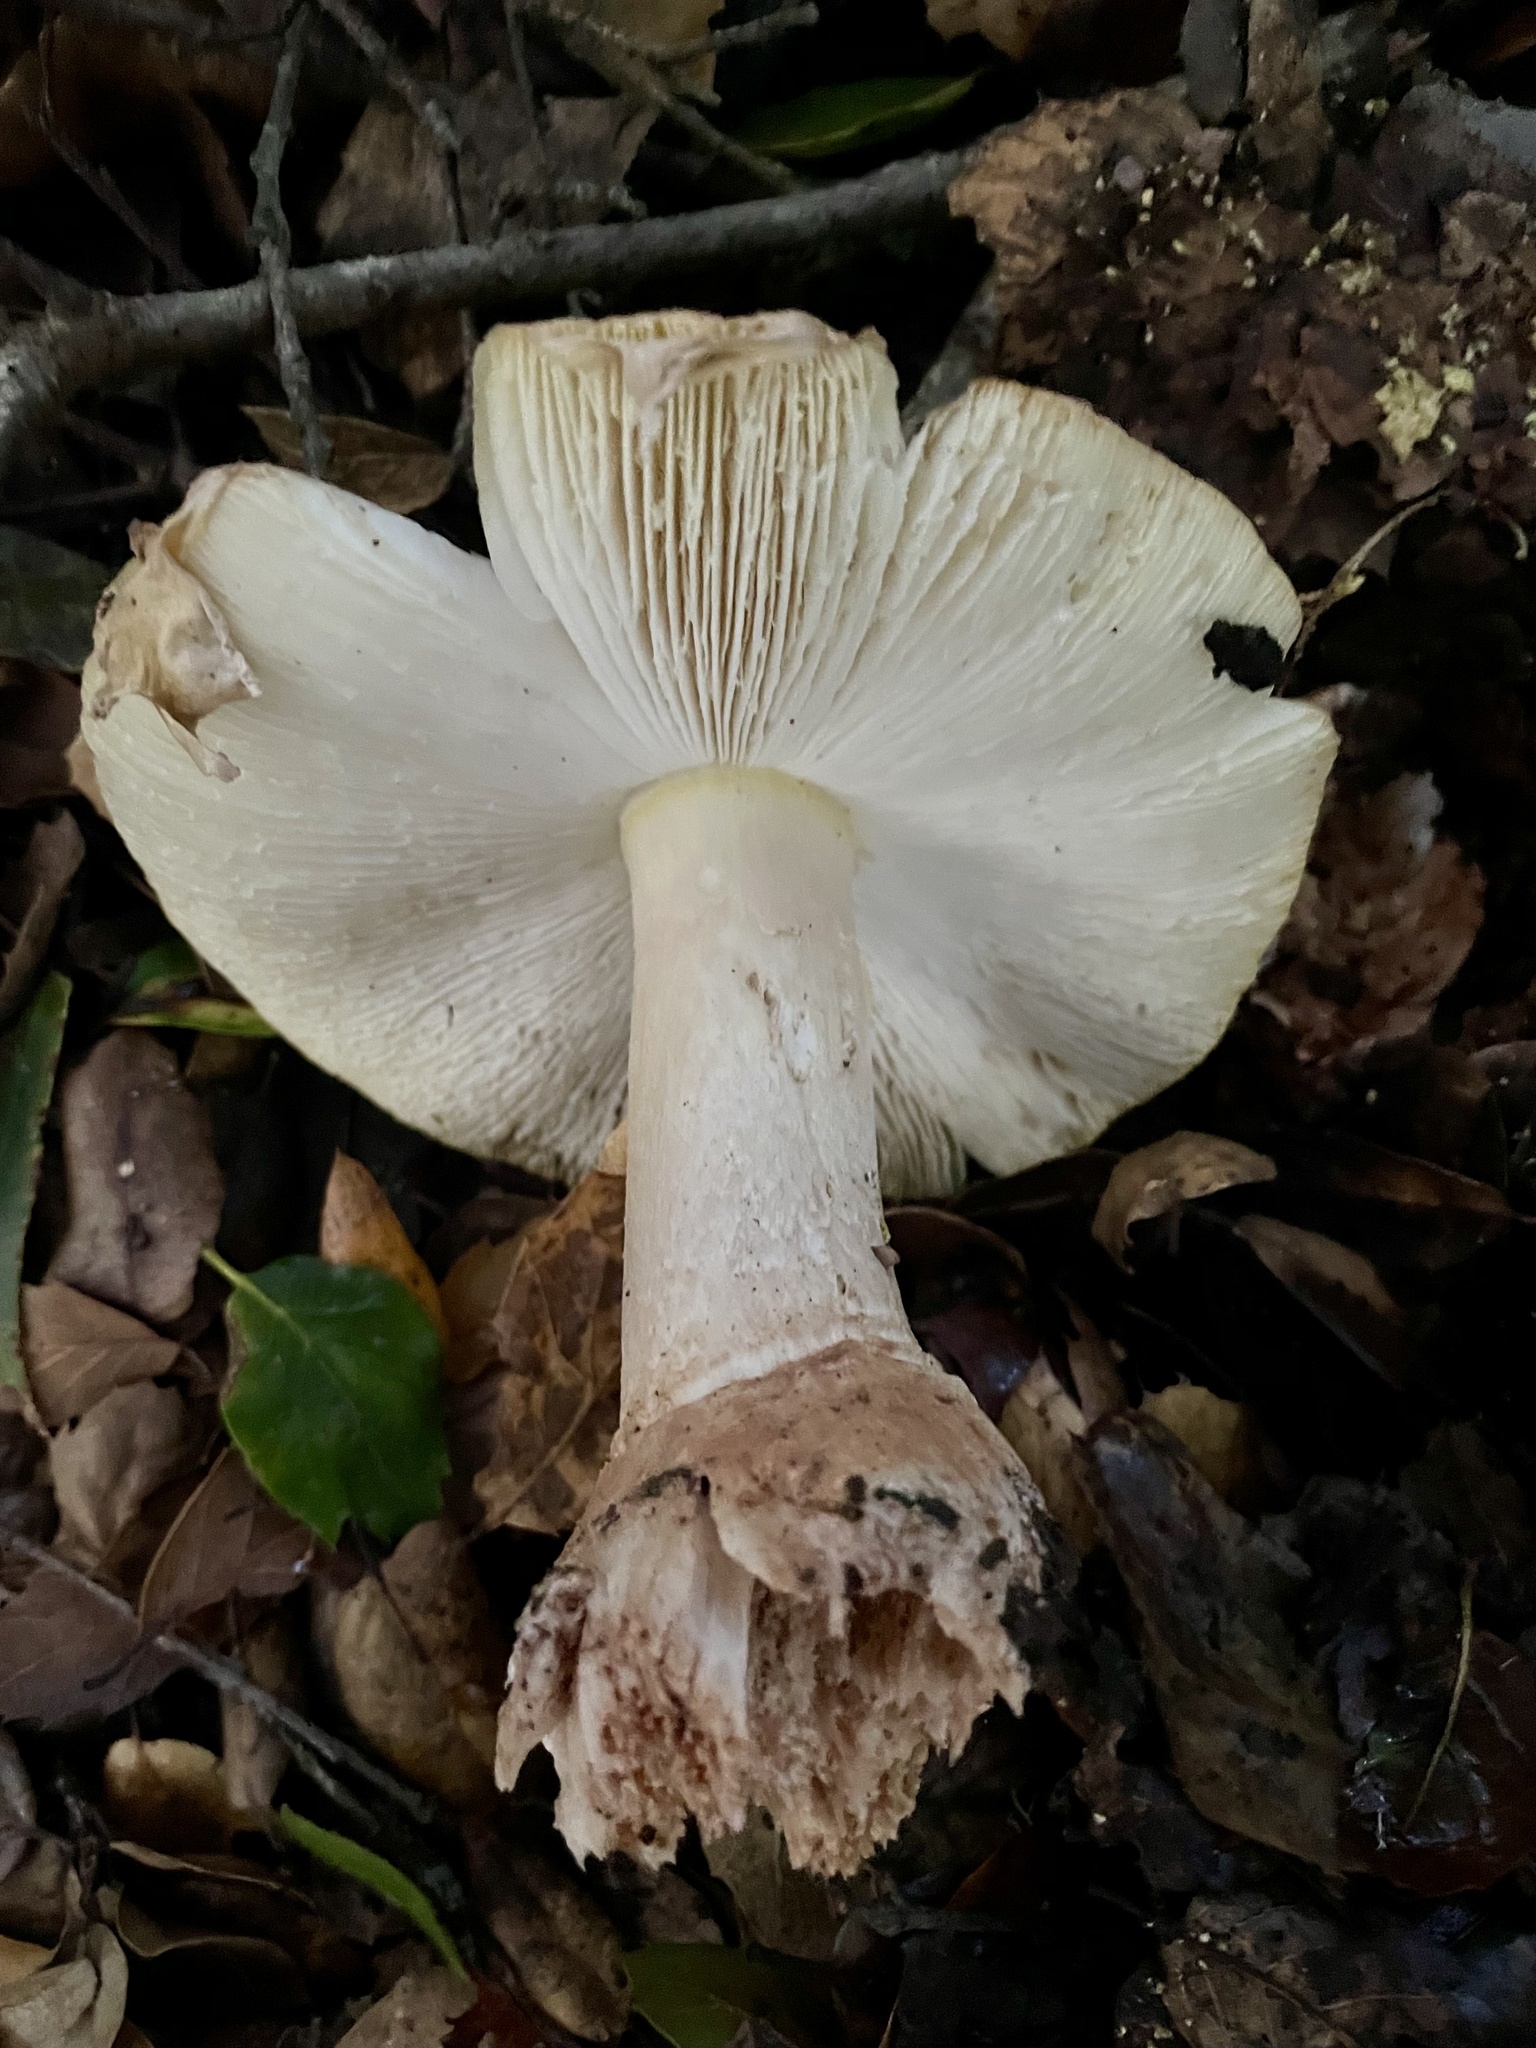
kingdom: Fungi
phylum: Basidiomycota
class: Agaricomycetes
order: Agaricales
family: Amanitaceae
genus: Amanita
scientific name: Amanita augusta
